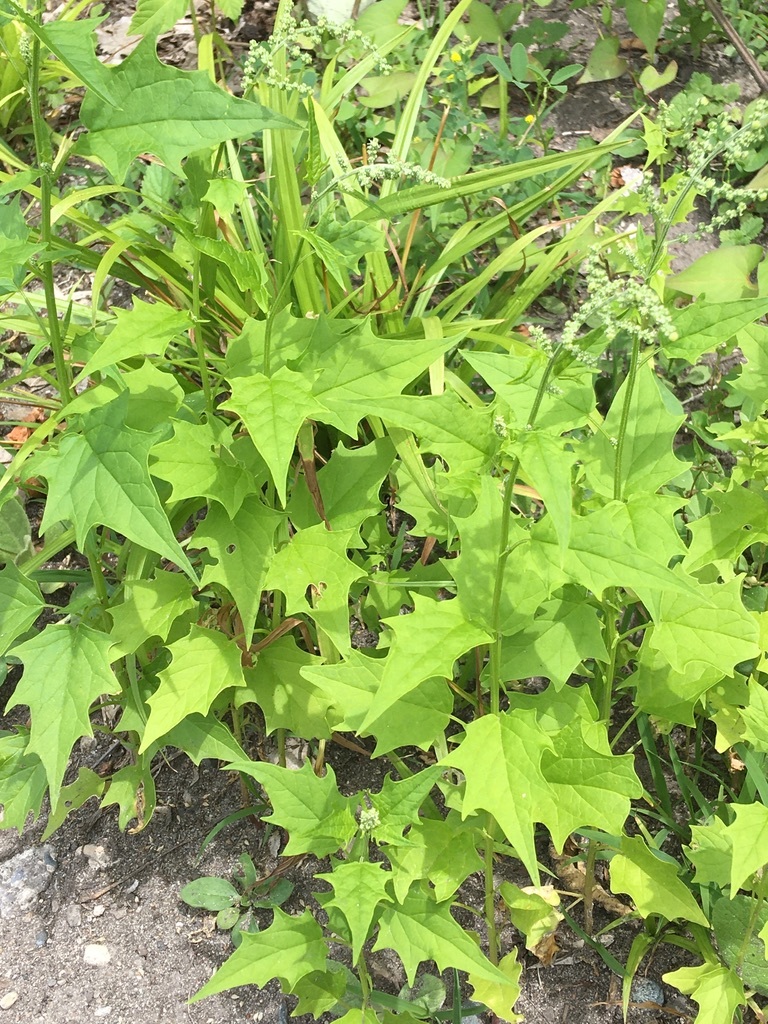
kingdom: Plantae
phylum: Tracheophyta
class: Magnoliopsida
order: Caryophyllales
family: Amaranthaceae
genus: Chenopodiastrum
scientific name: Chenopodiastrum simplex
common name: Large-seed goosefoot
